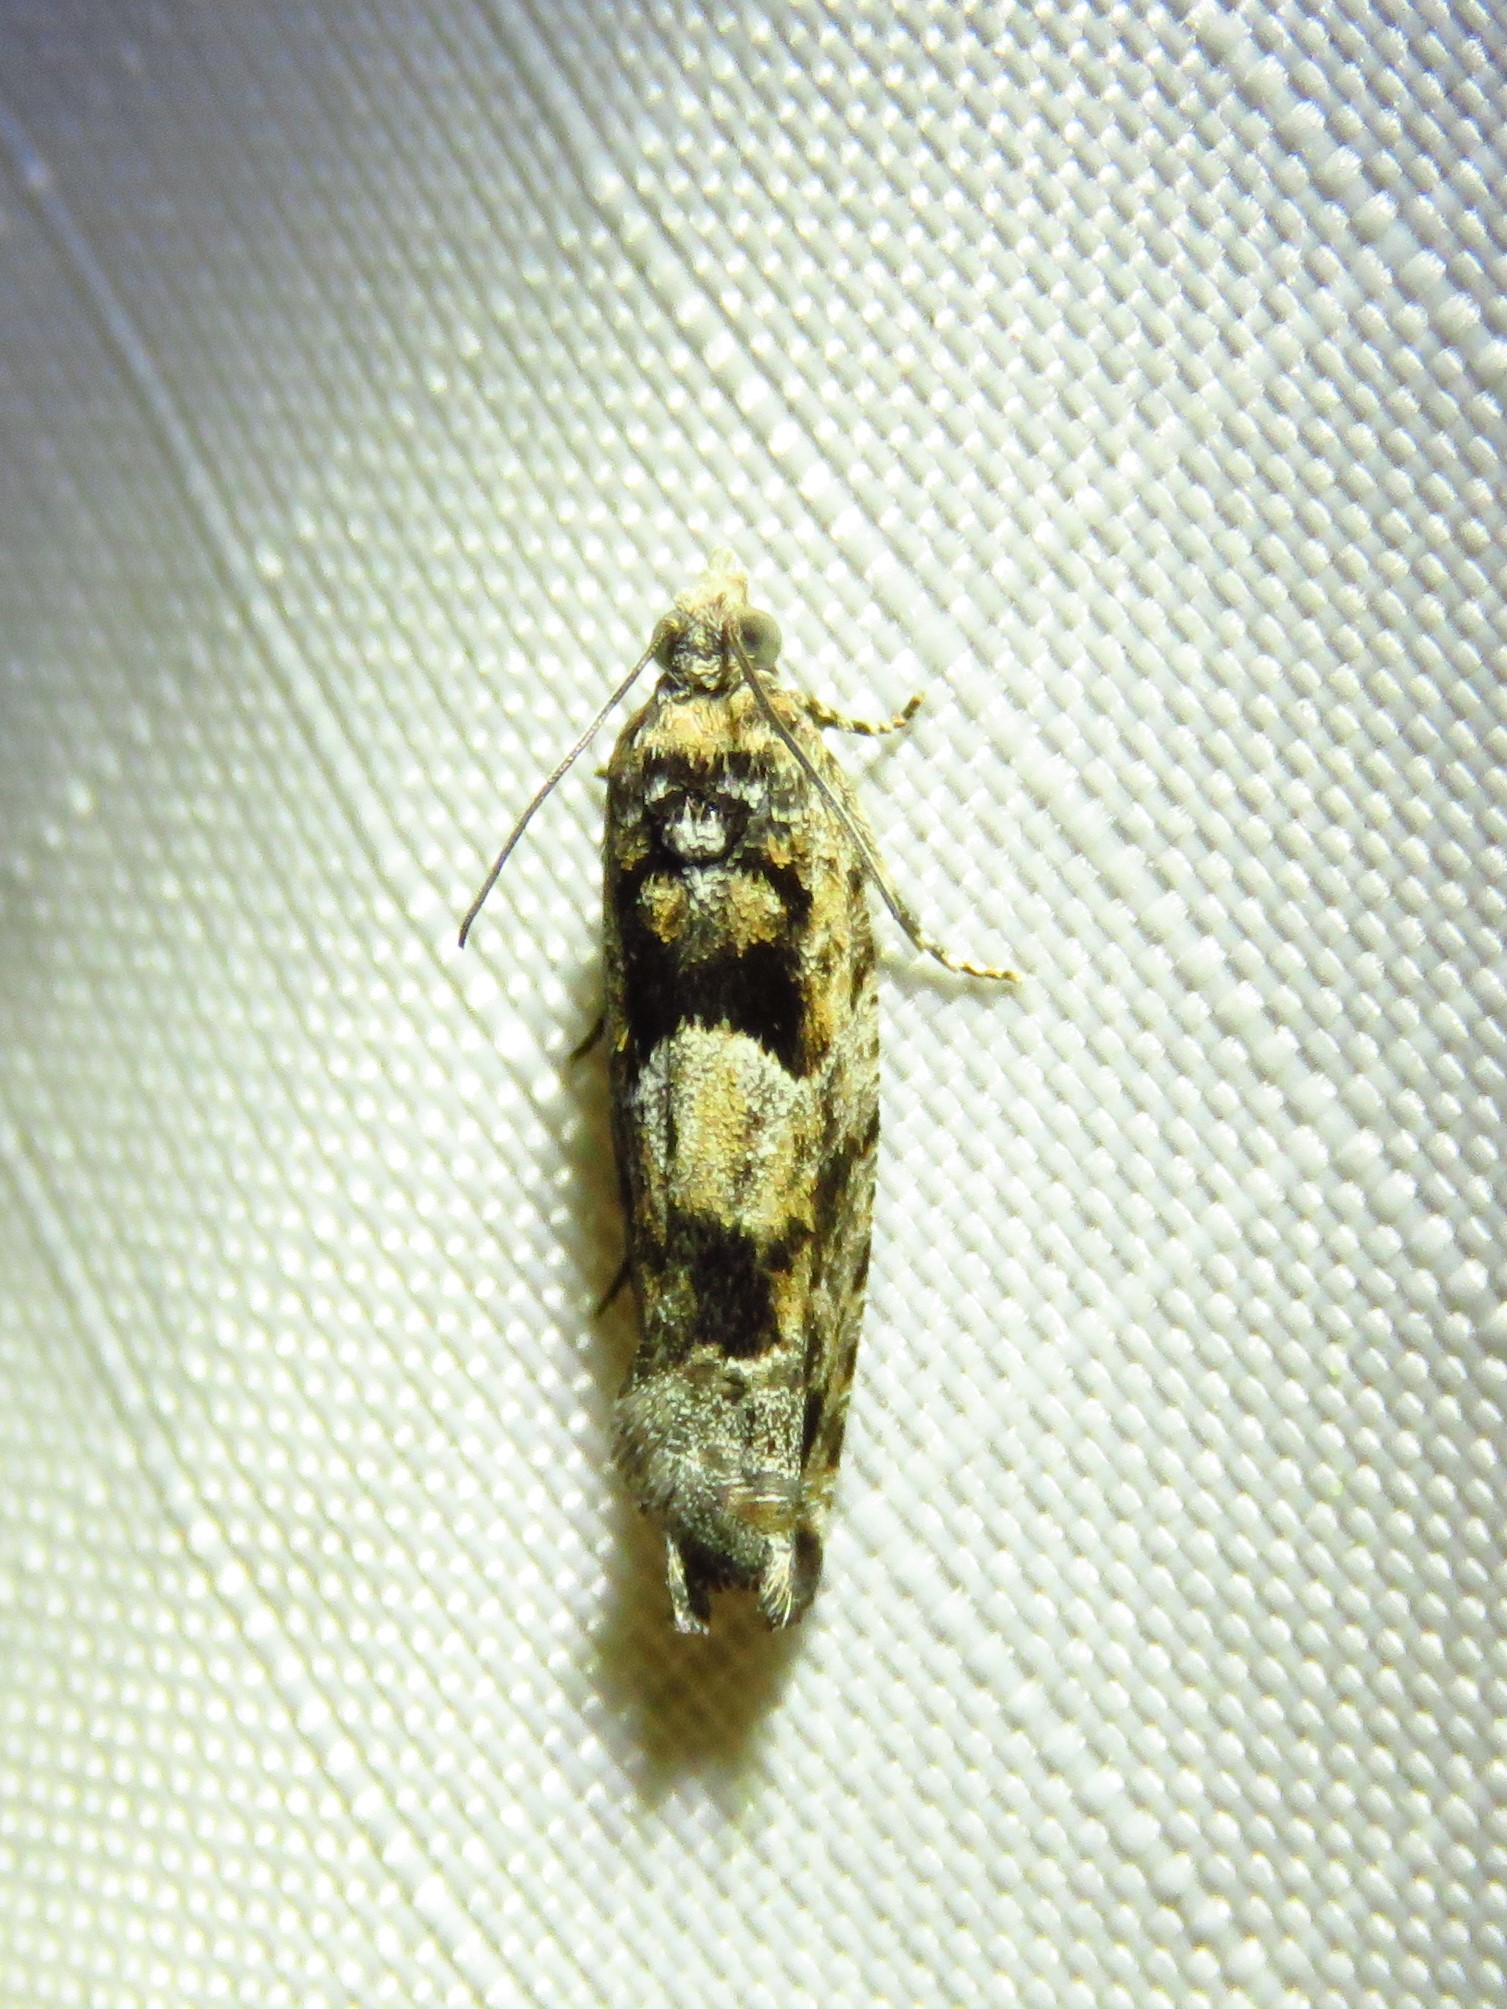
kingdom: Animalia
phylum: Arthropoda
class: Insecta
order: Lepidoptera
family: Tortricidae
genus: Pseudexentera
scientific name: Pseudexentera hodsoni
